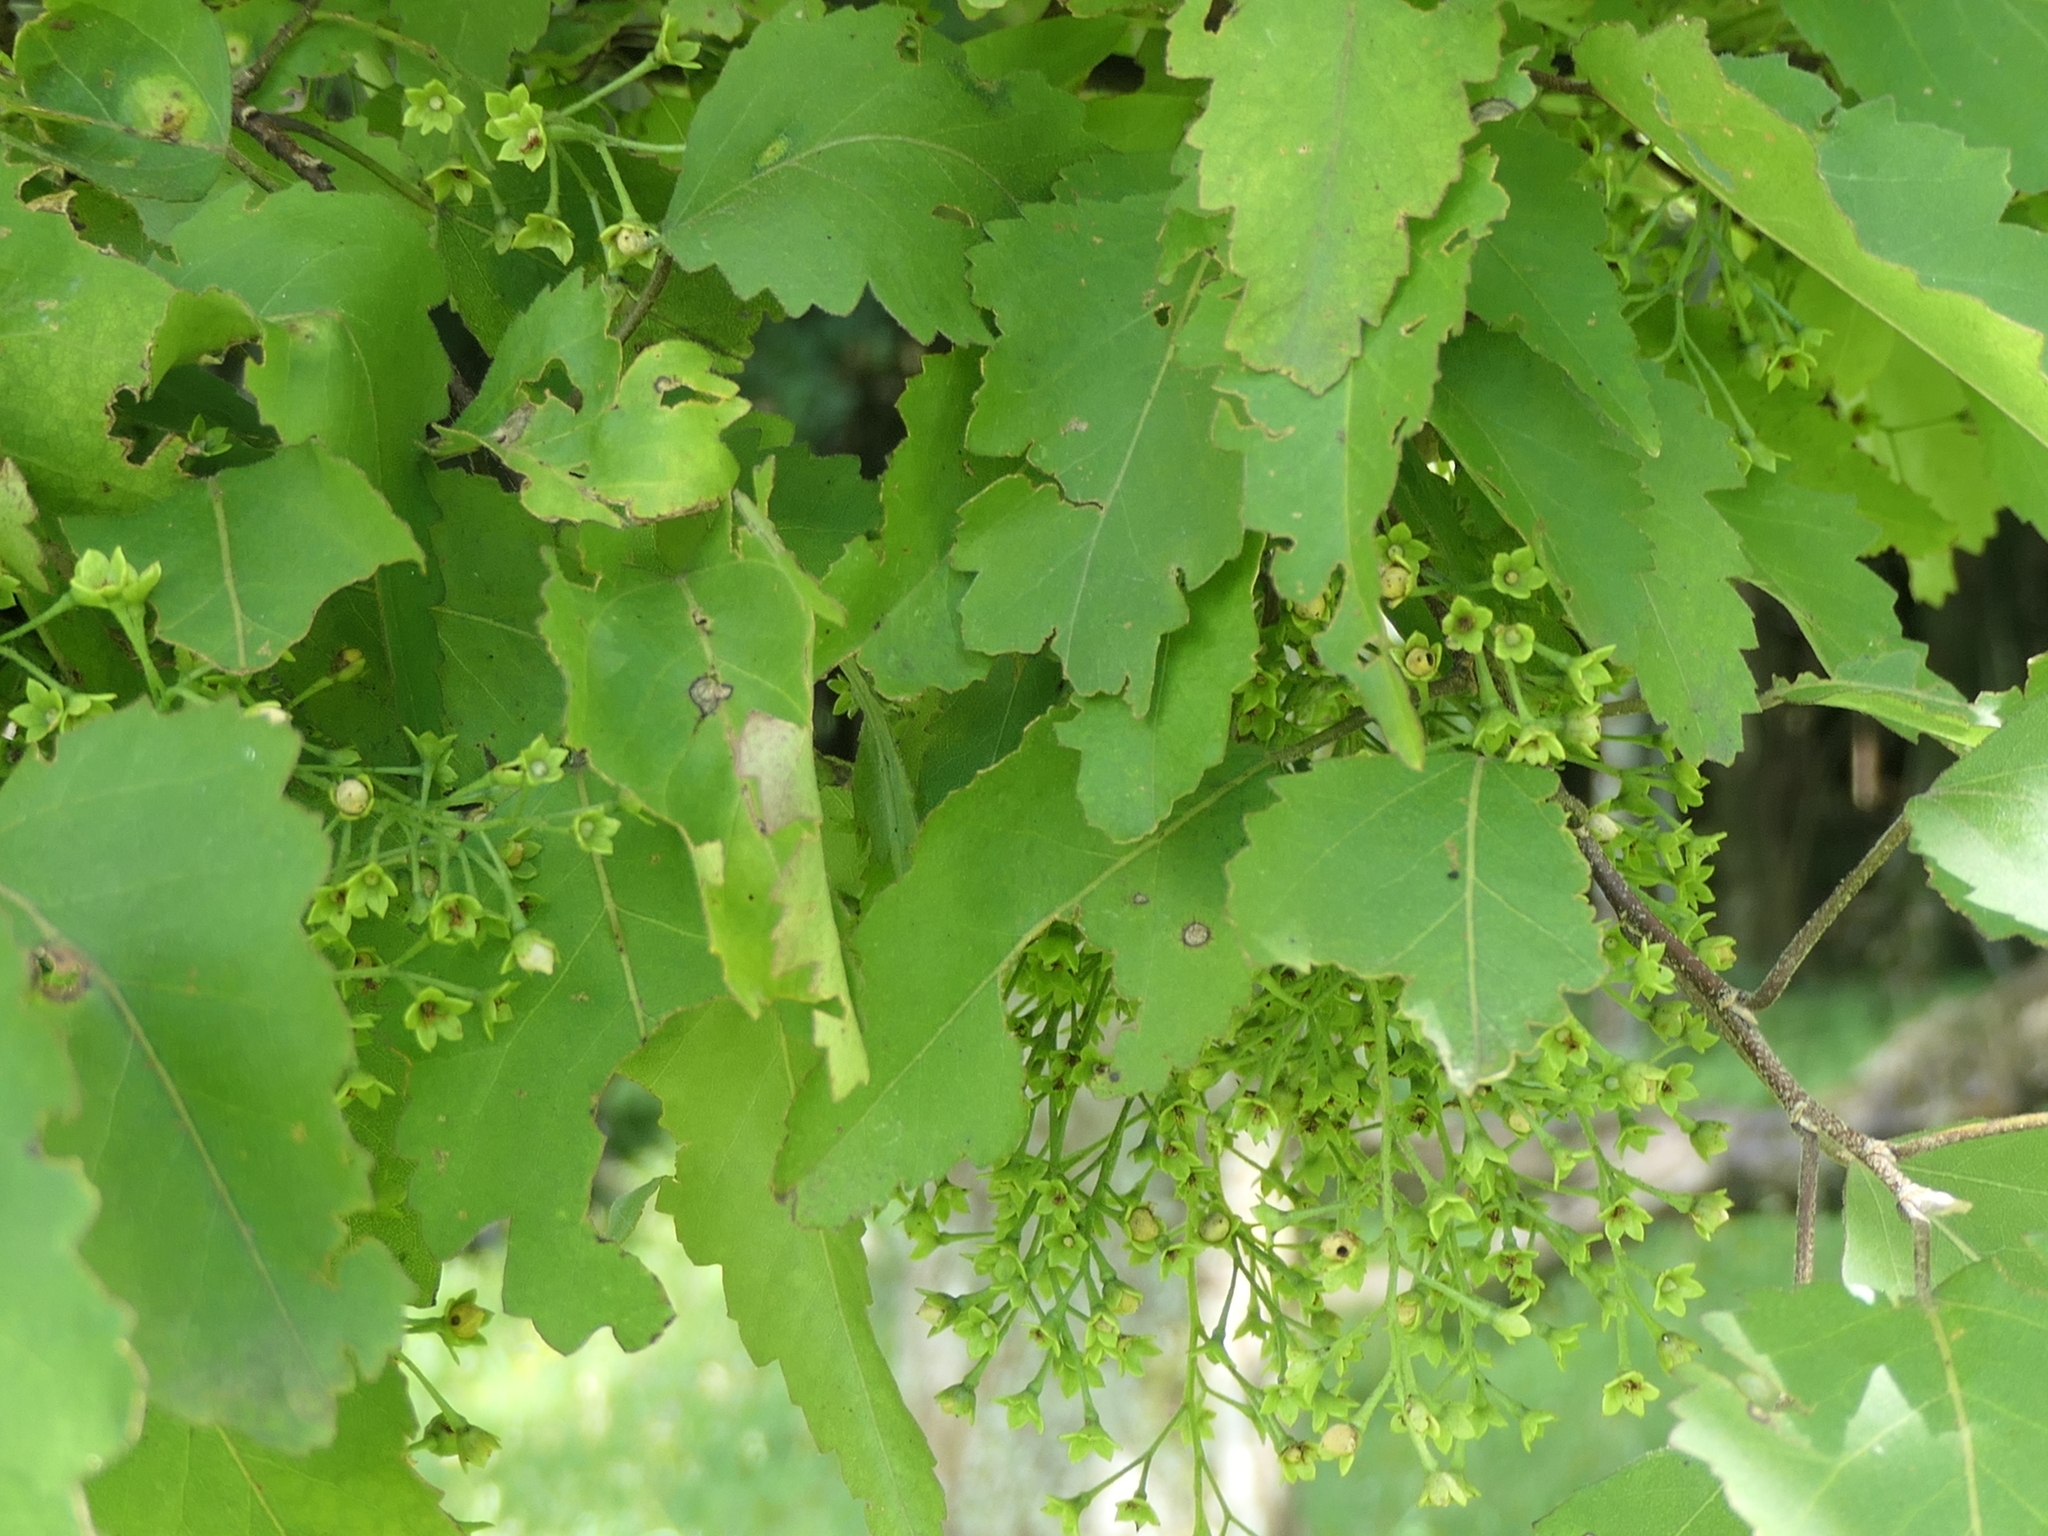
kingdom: Plantae
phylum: Tracheophyta
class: Magnoliopsida
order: Malvales
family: Malvaceae
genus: Plagianthus
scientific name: Plagianthus regius
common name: Manatu
